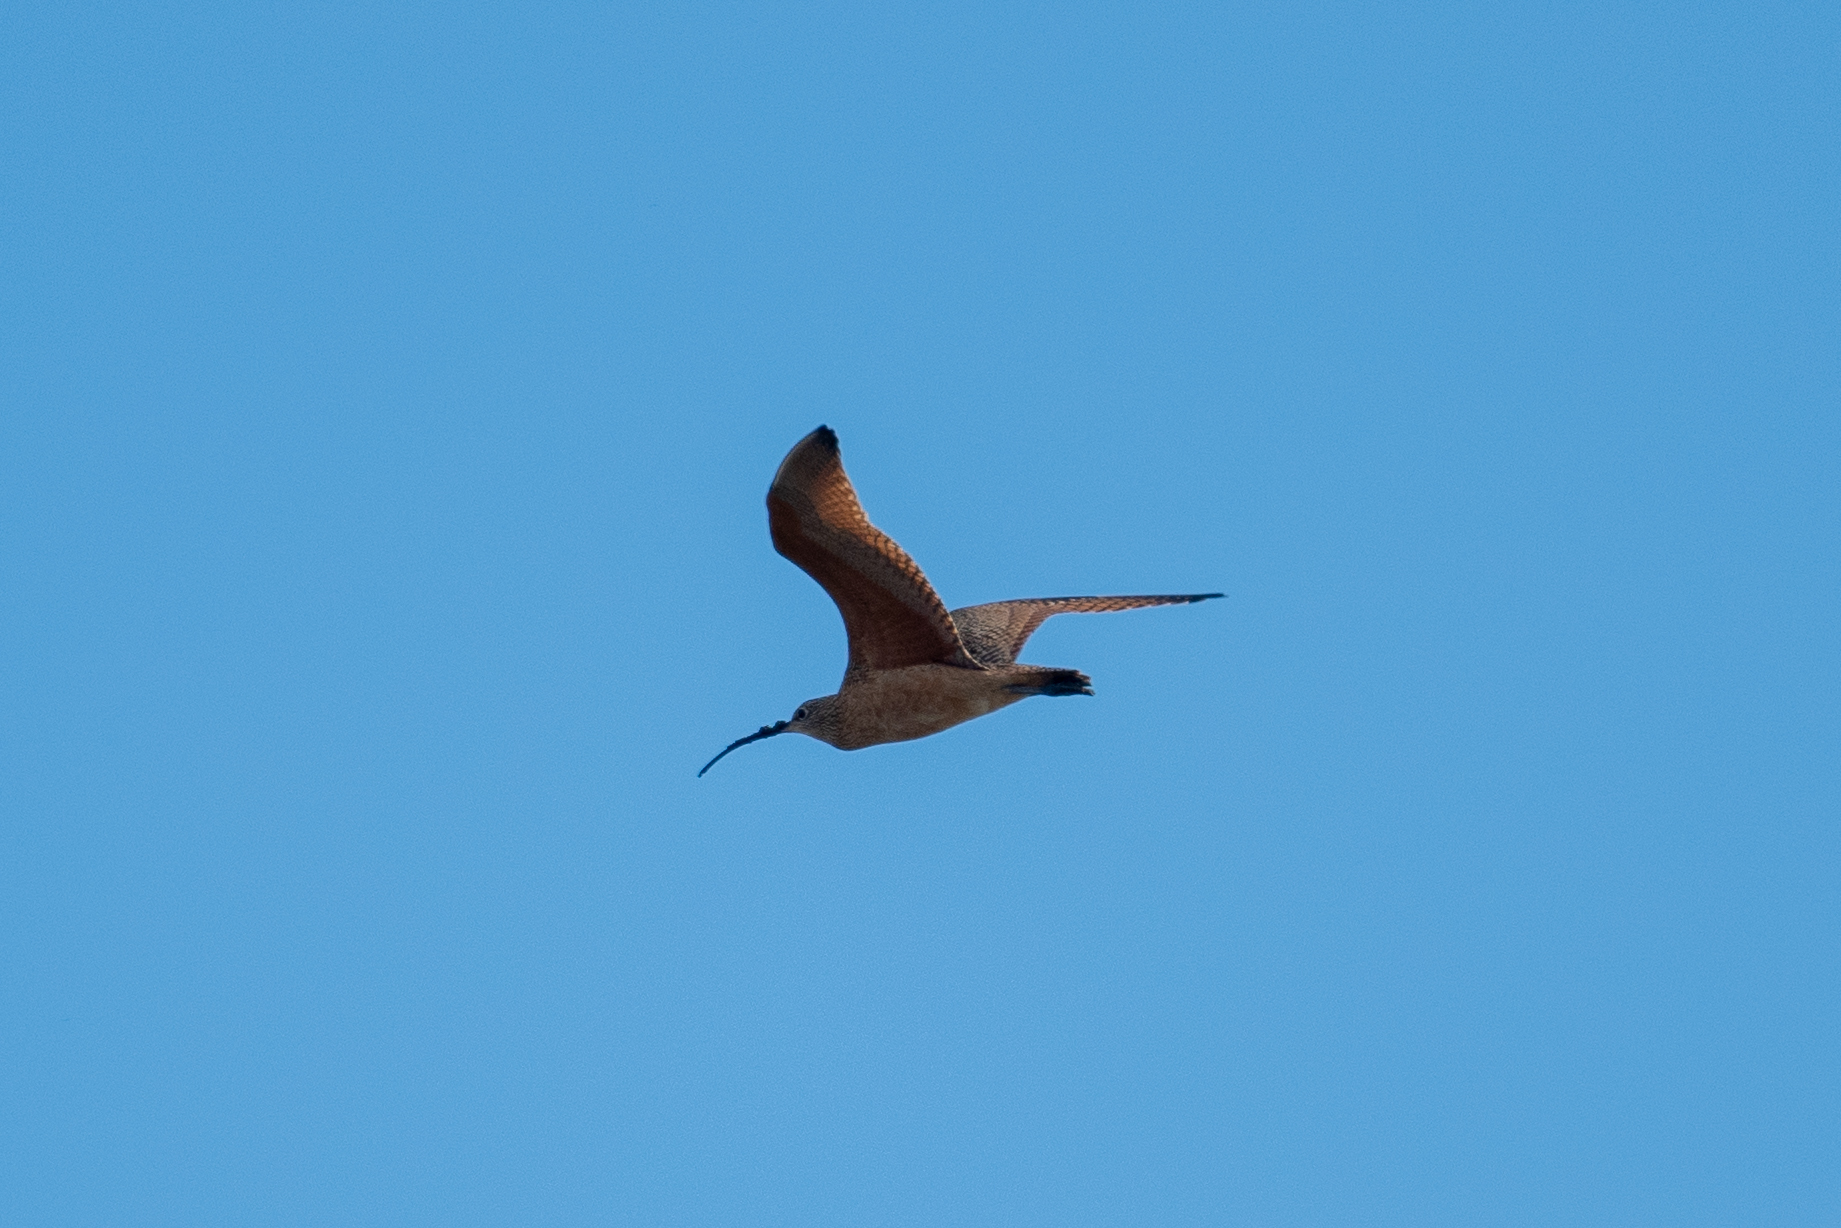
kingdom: Animalia
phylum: Chordata
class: Aves
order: Charadriiformes
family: Scolopacidae
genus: Numenius
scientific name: Numenius americanus
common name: Long-billed curlew
